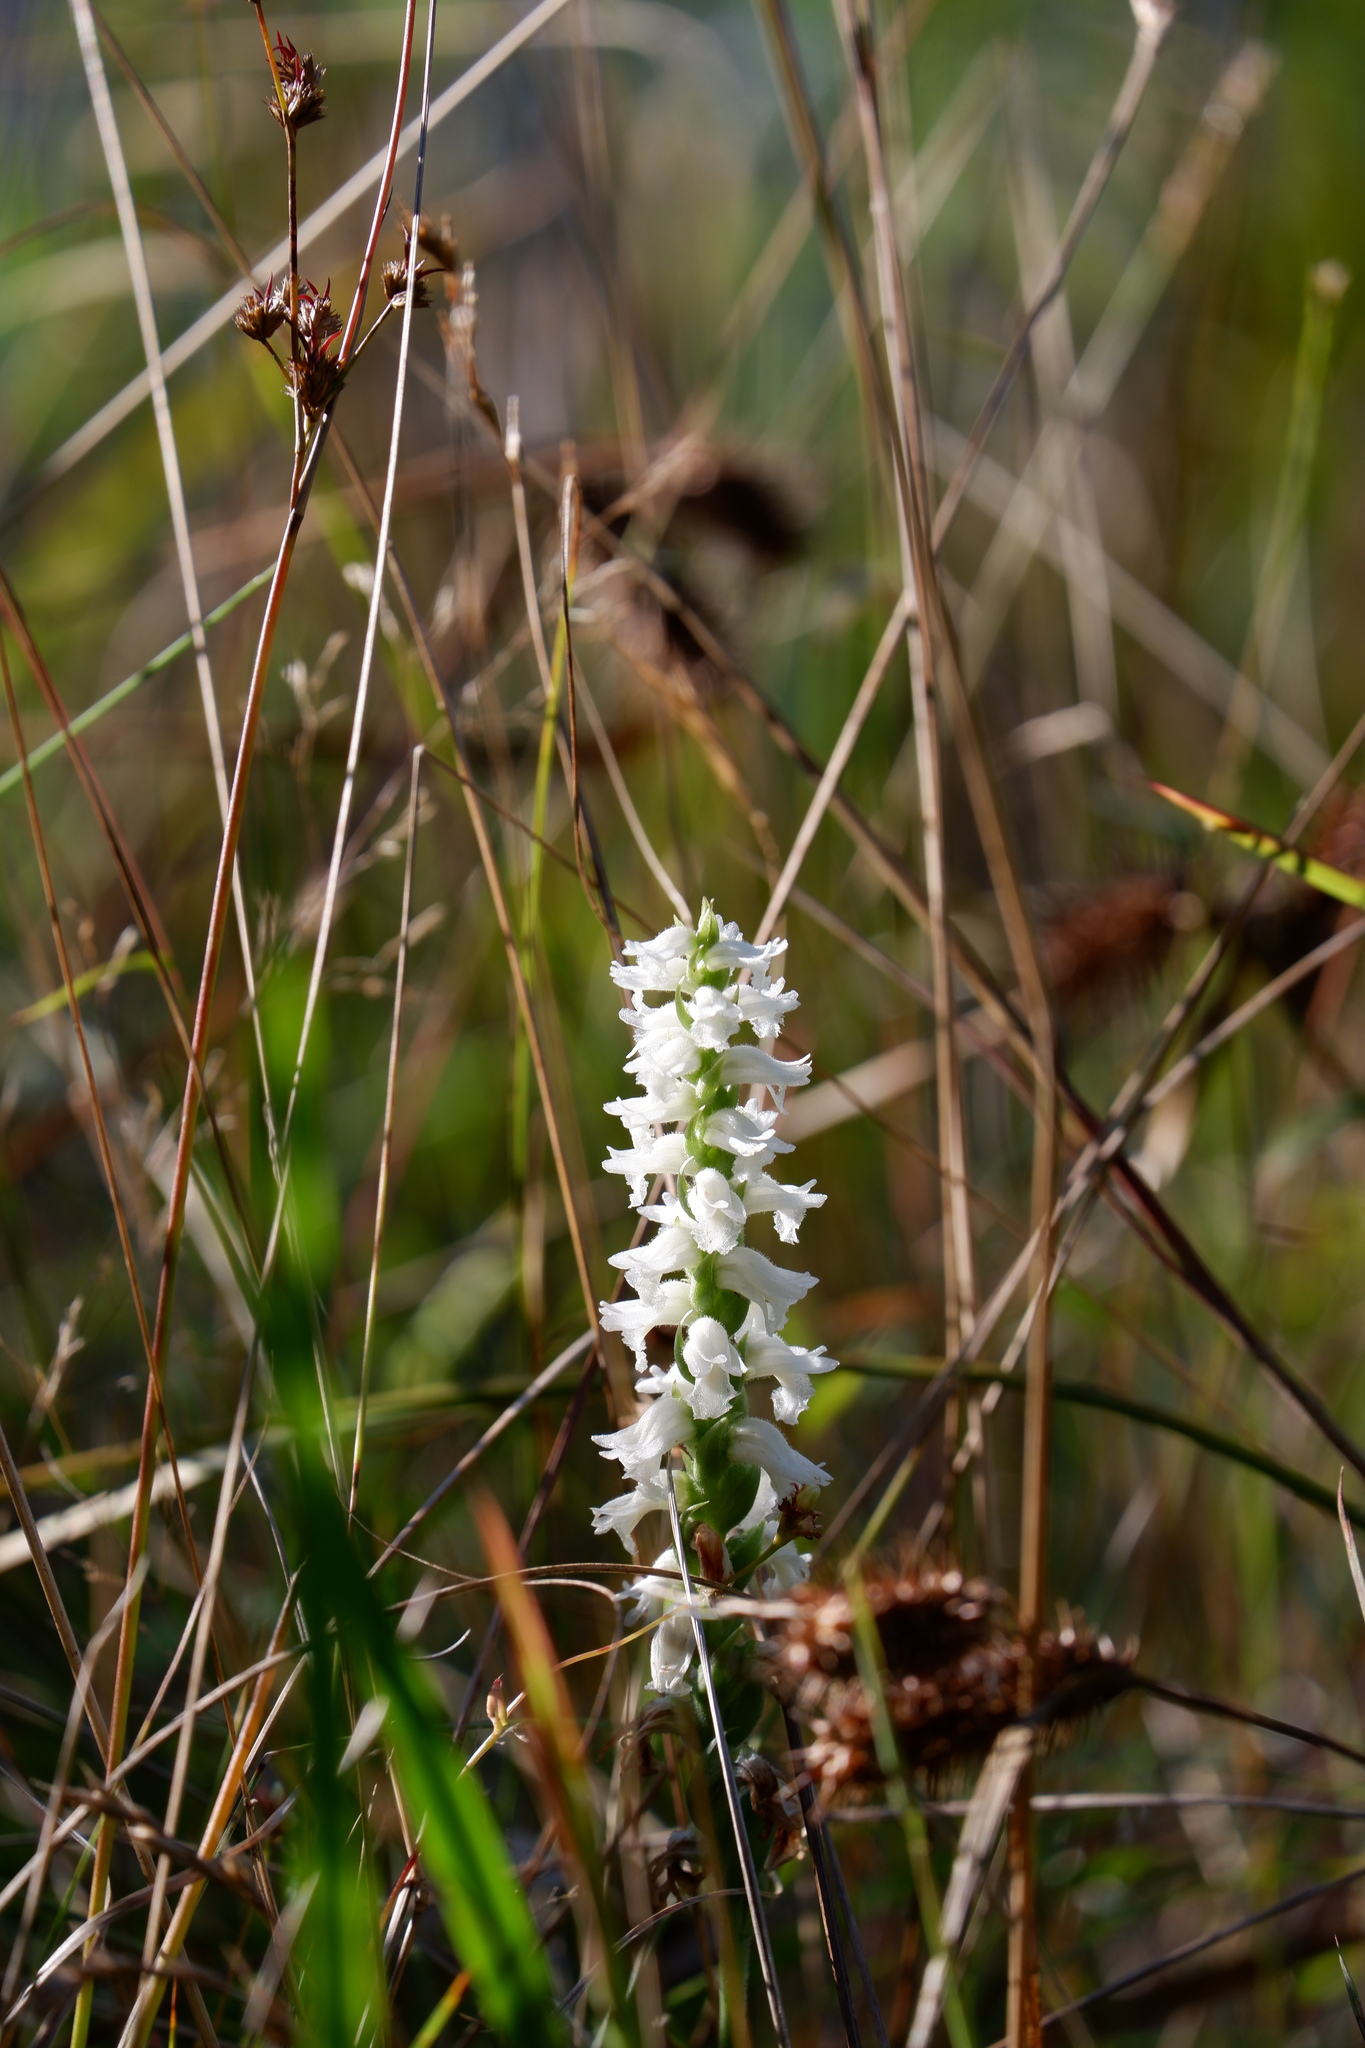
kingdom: Plantae
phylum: Tracheophyta
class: Liliopsida
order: Asparagales
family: Orchidaceae
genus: Spiranthes
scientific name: Spiranthes arcisepala
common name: Appalachian ladies'-tresses
